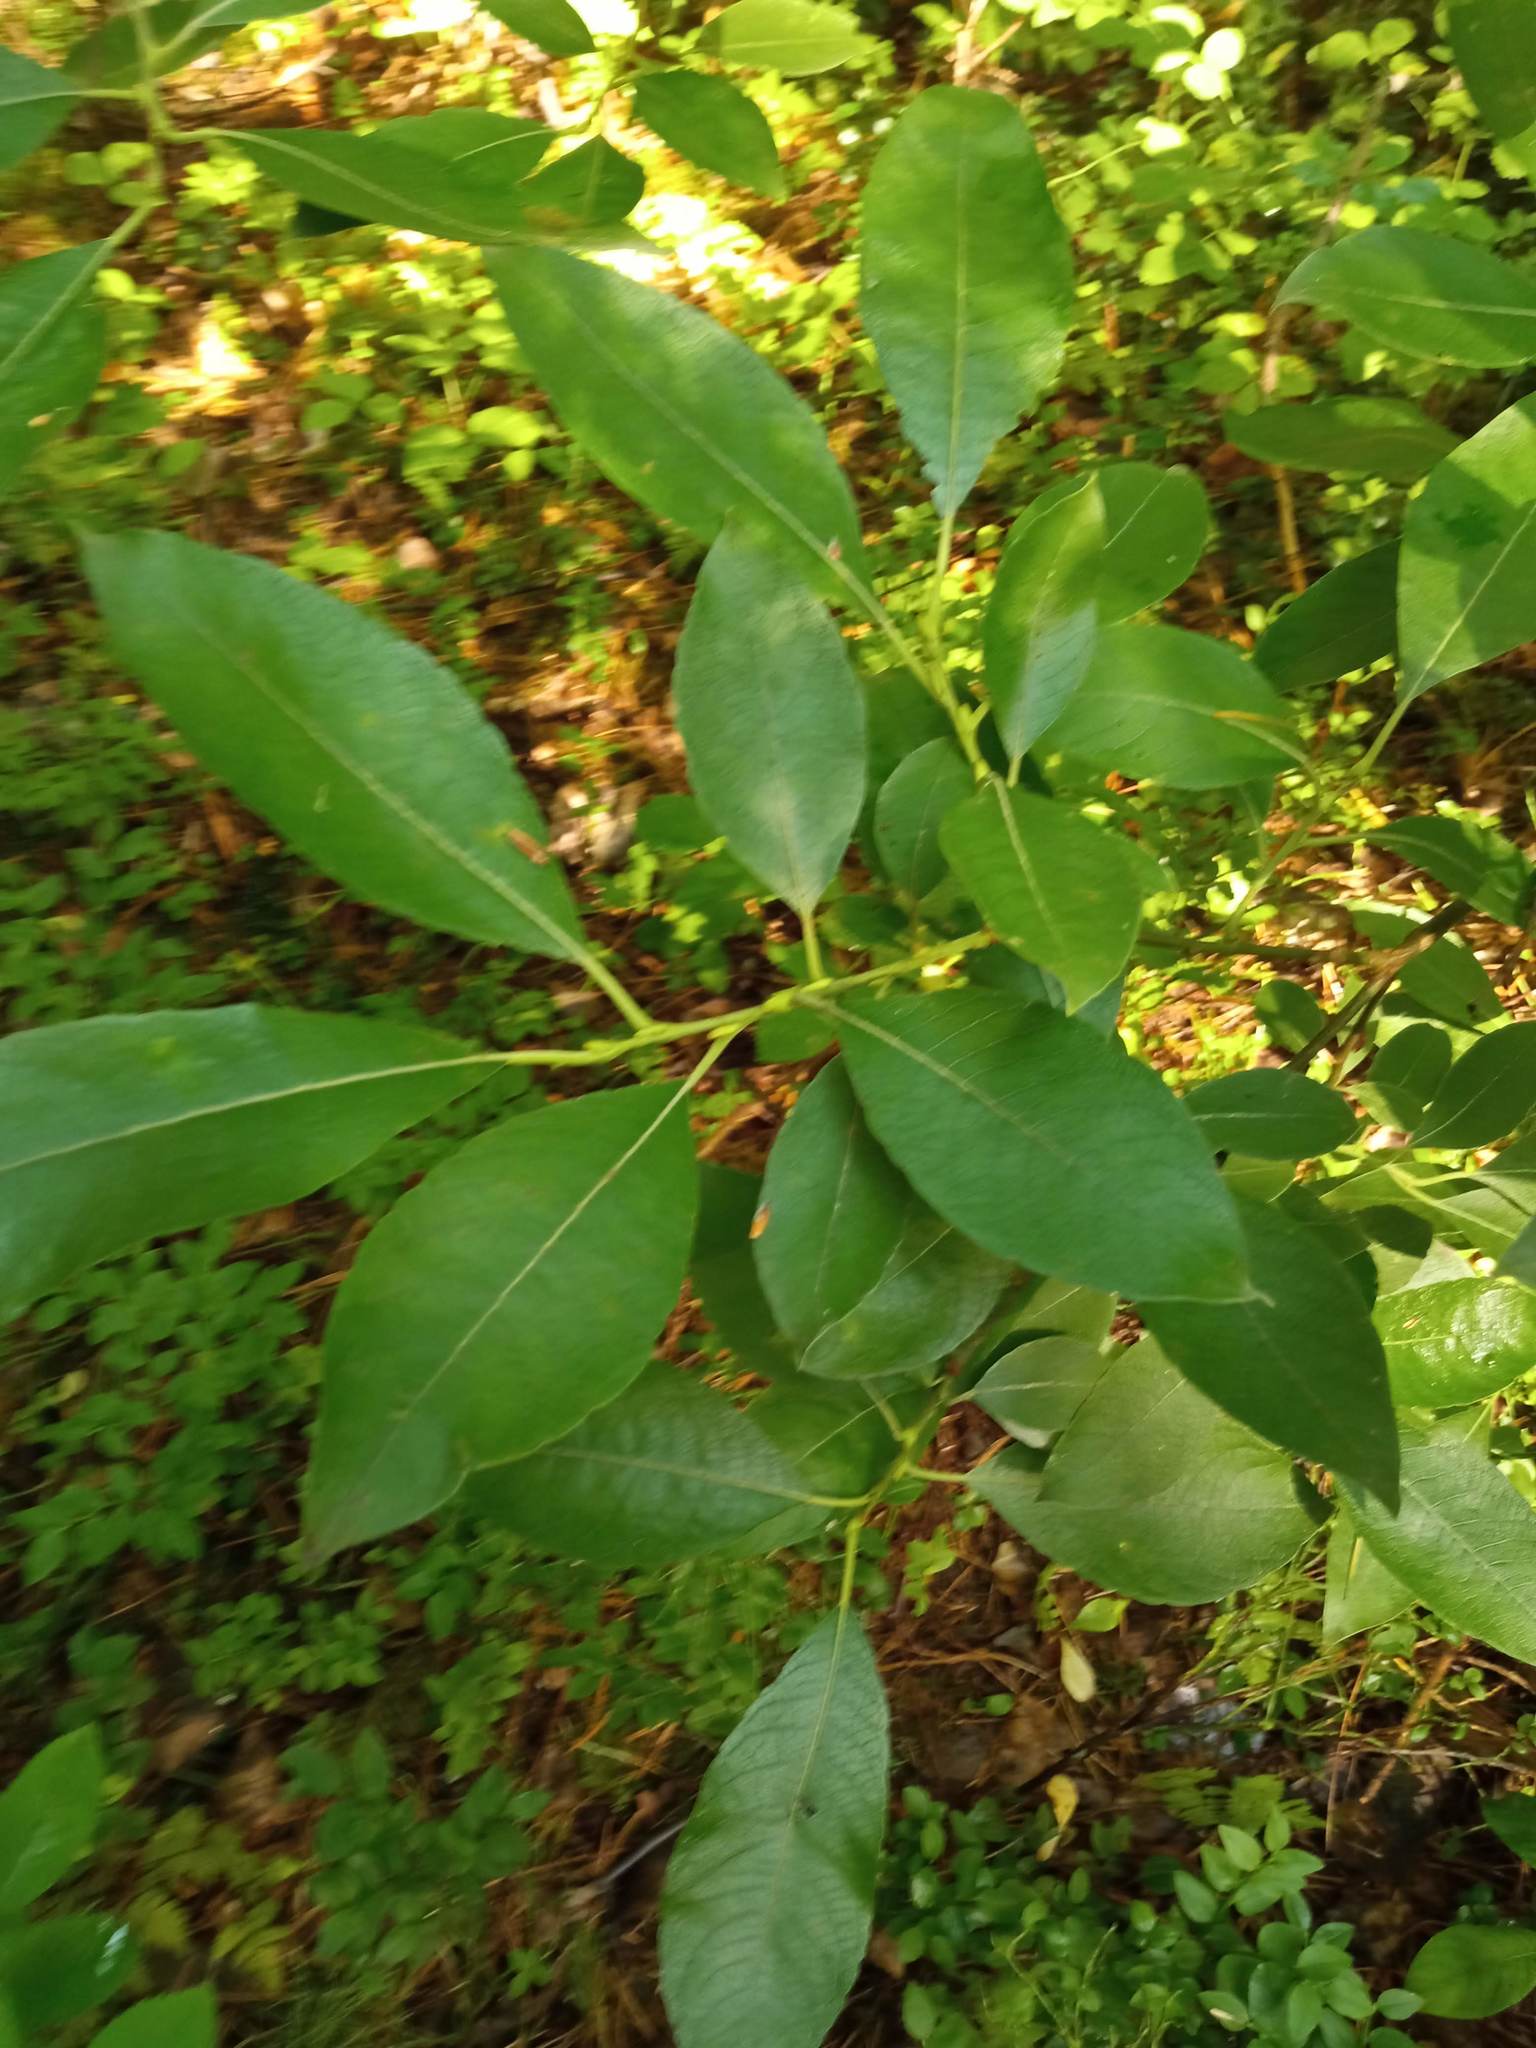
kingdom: Plantae
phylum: Tracheophyta
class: Magnoliopsida
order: Malpighiales
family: Salicaceae
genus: Salix
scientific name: Salix caprea
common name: Goat willow
